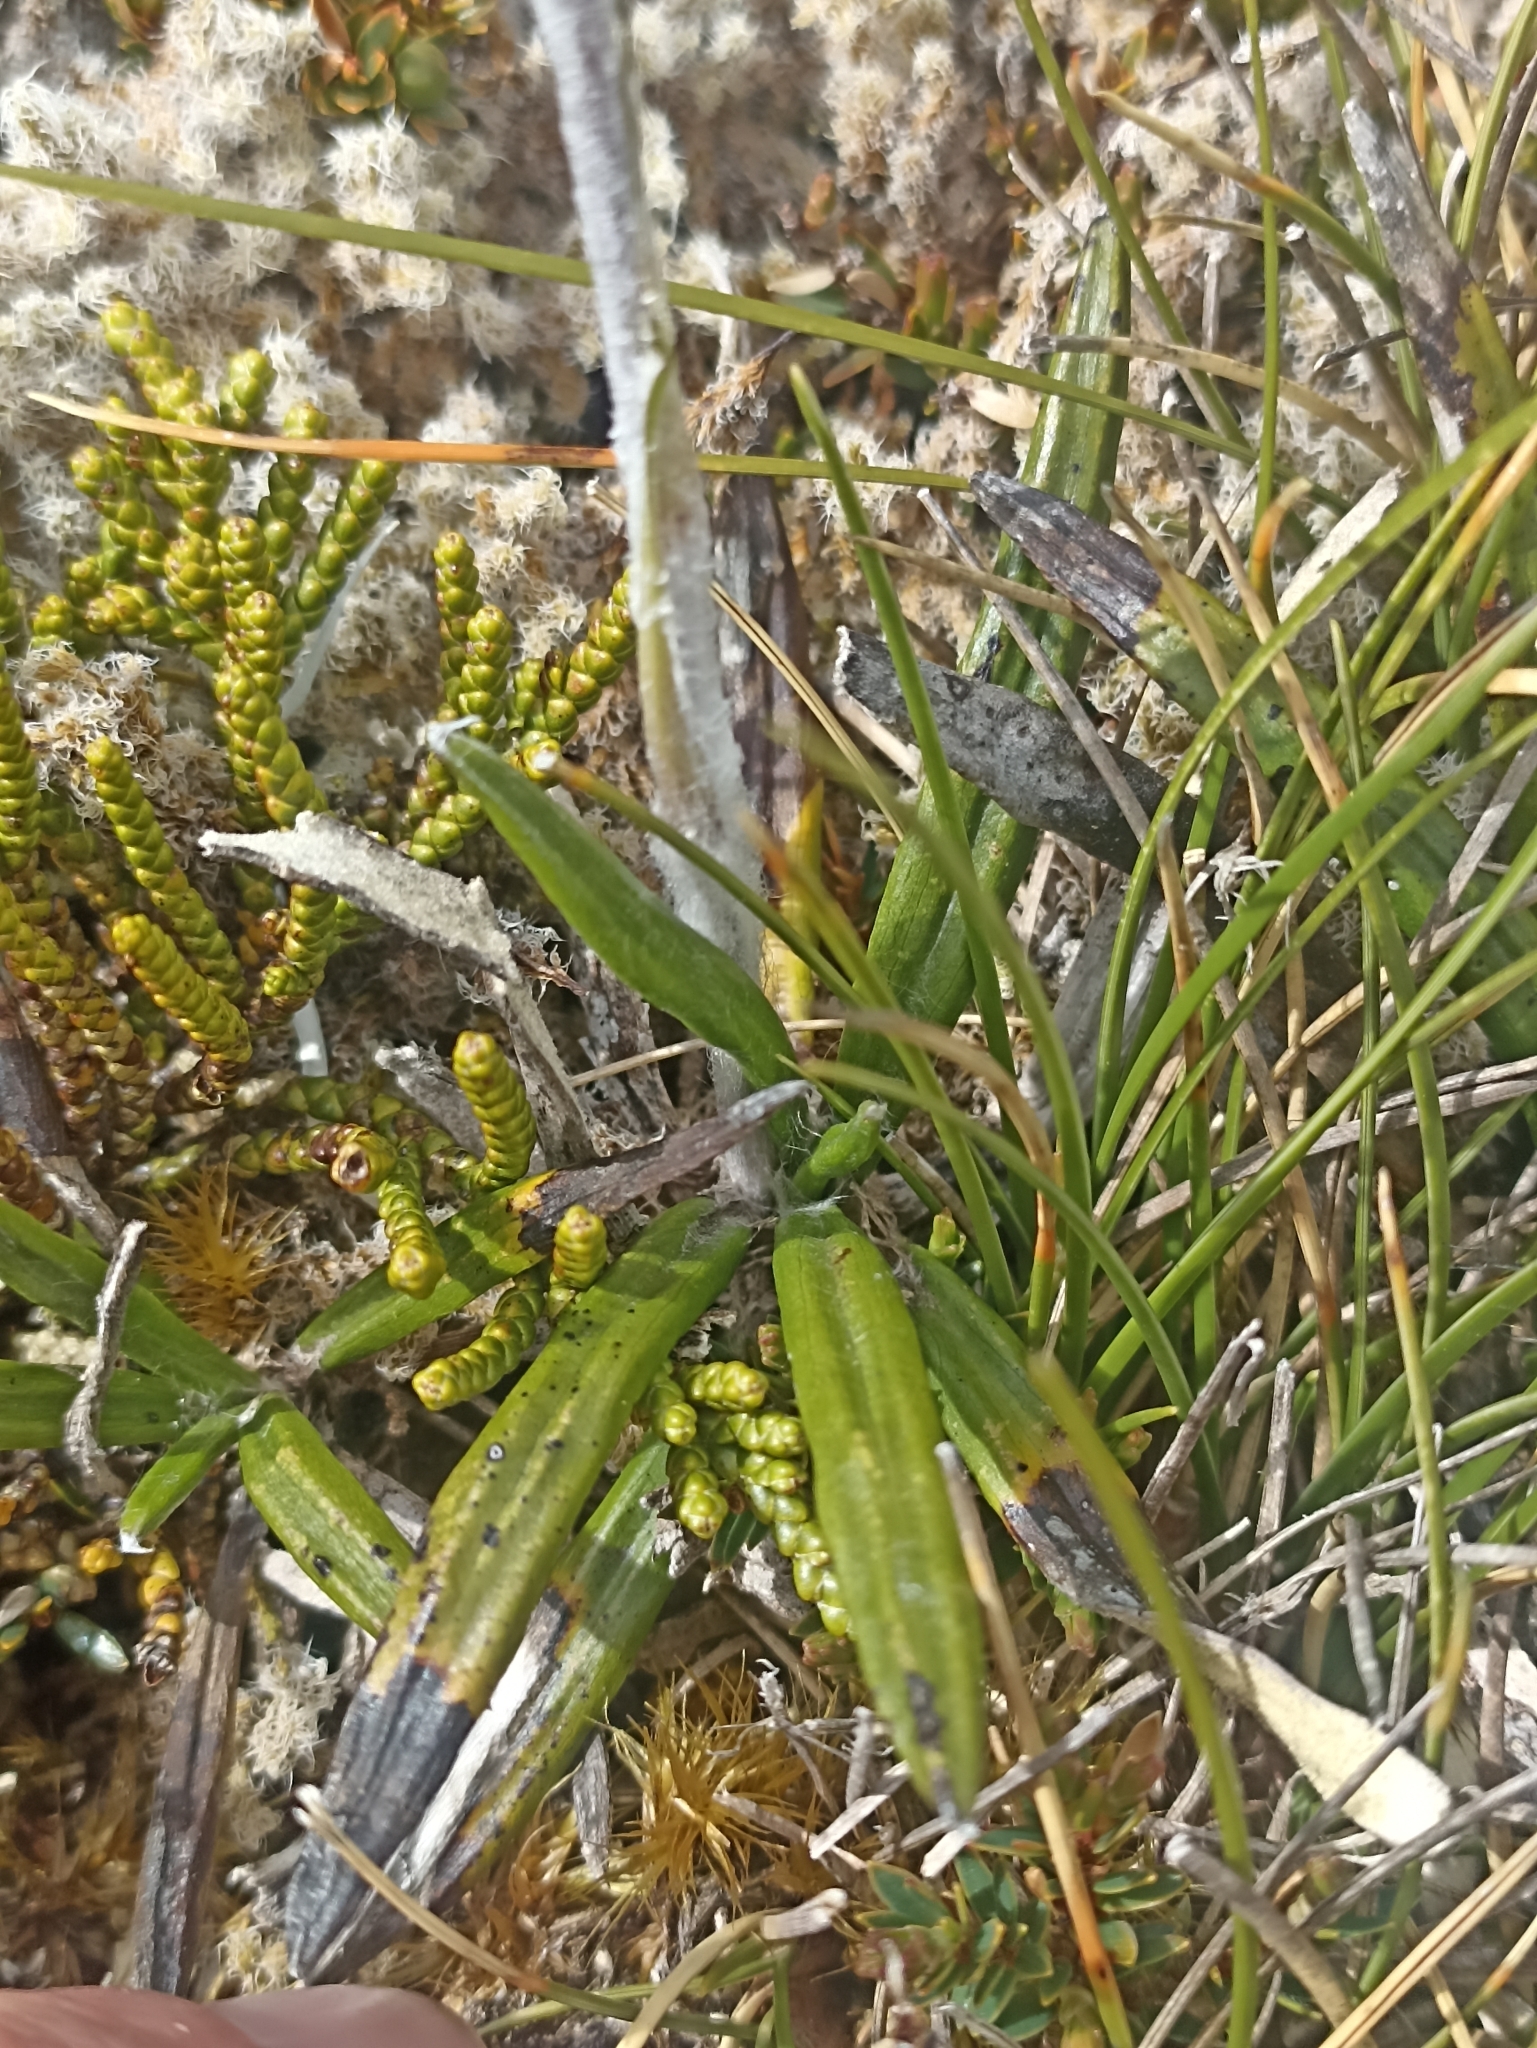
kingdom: Plantae
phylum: Tracheophyta
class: Magnoliopsida
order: Asterales
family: Asteraceae
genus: Celmisia
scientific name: Celmisia spectabilis
